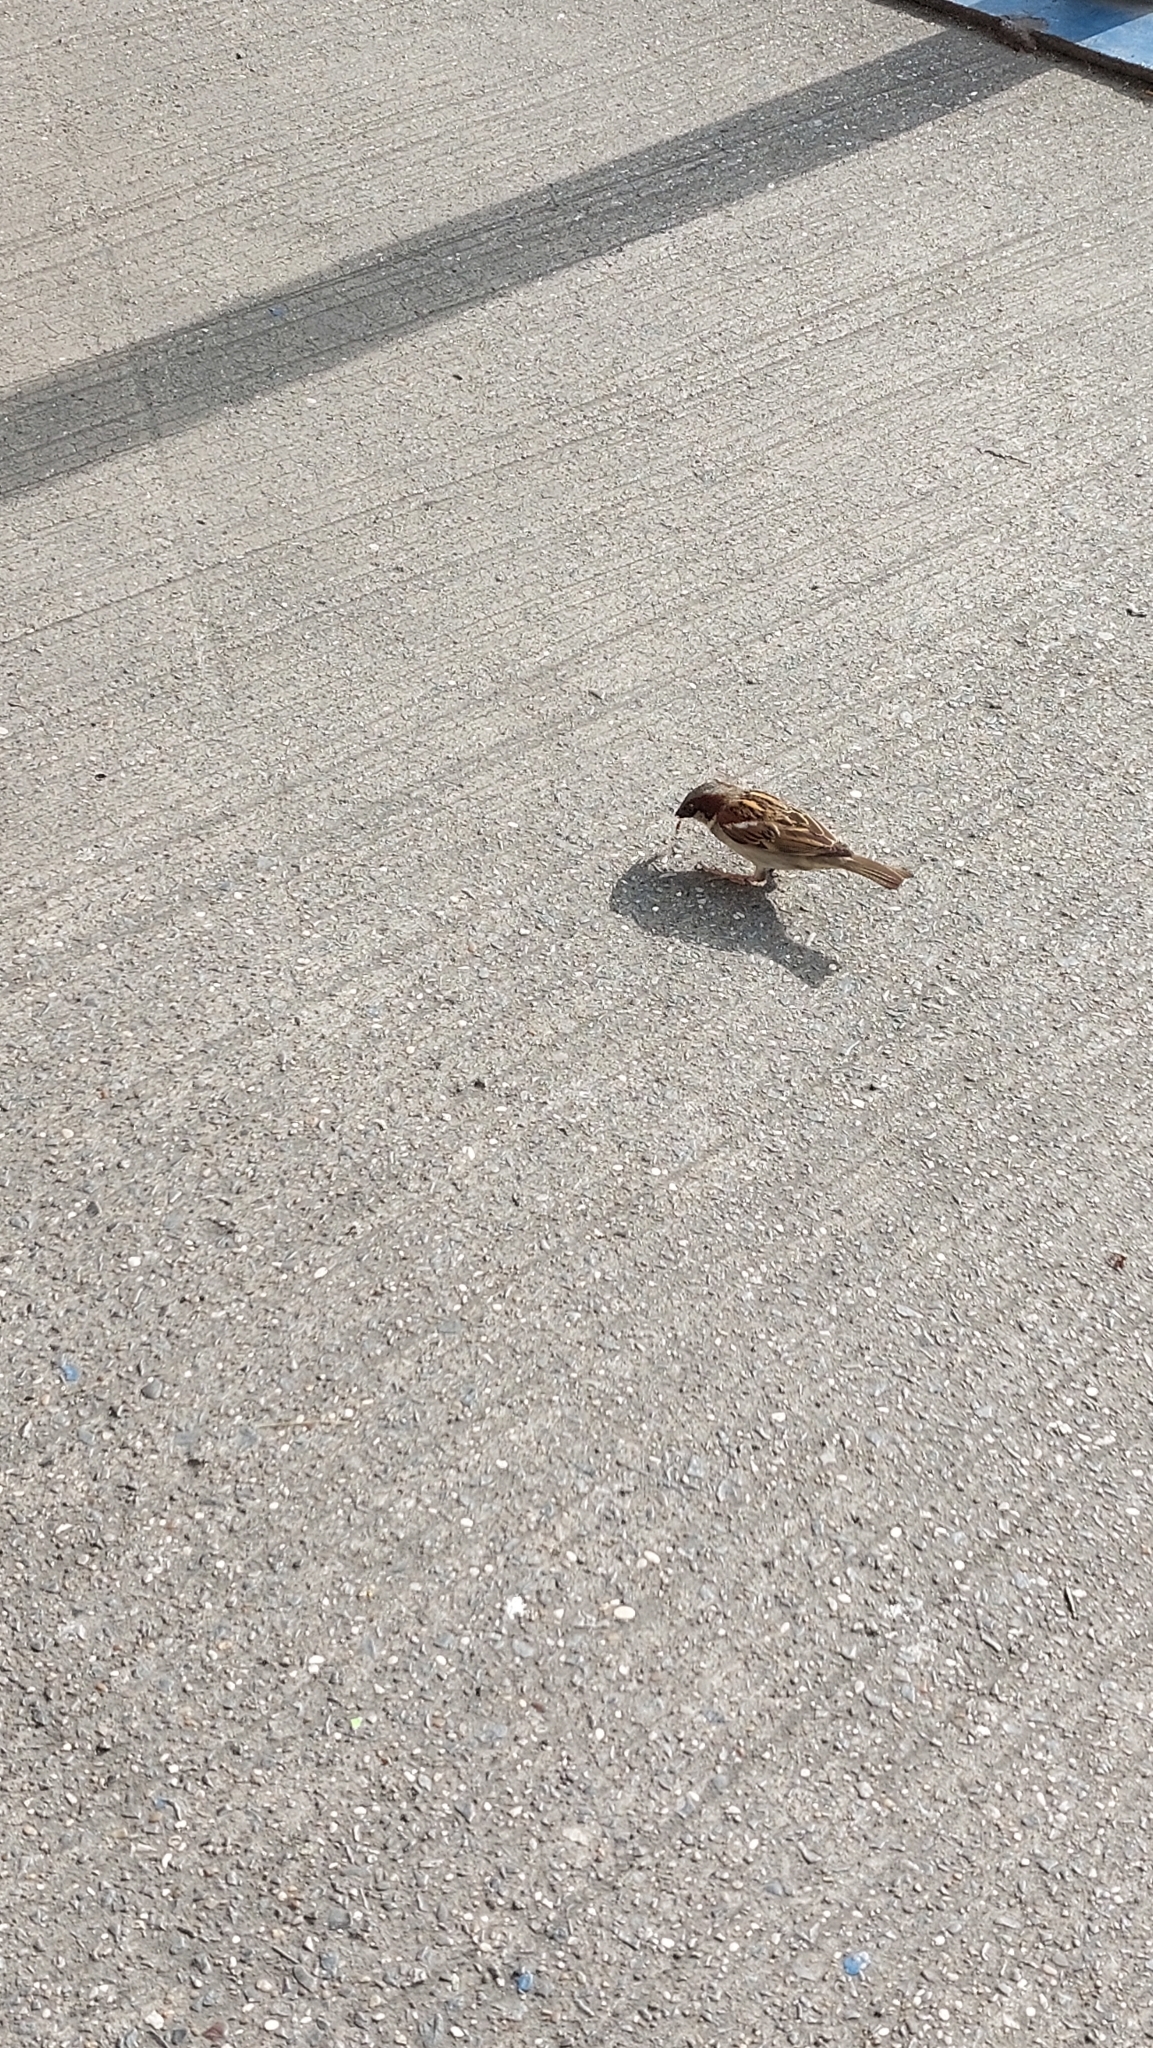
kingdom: Animalia
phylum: Chordata
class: Aves
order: Passeriformes
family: Passeridae
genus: Passer
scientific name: Passer domesticus
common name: House sparrow
